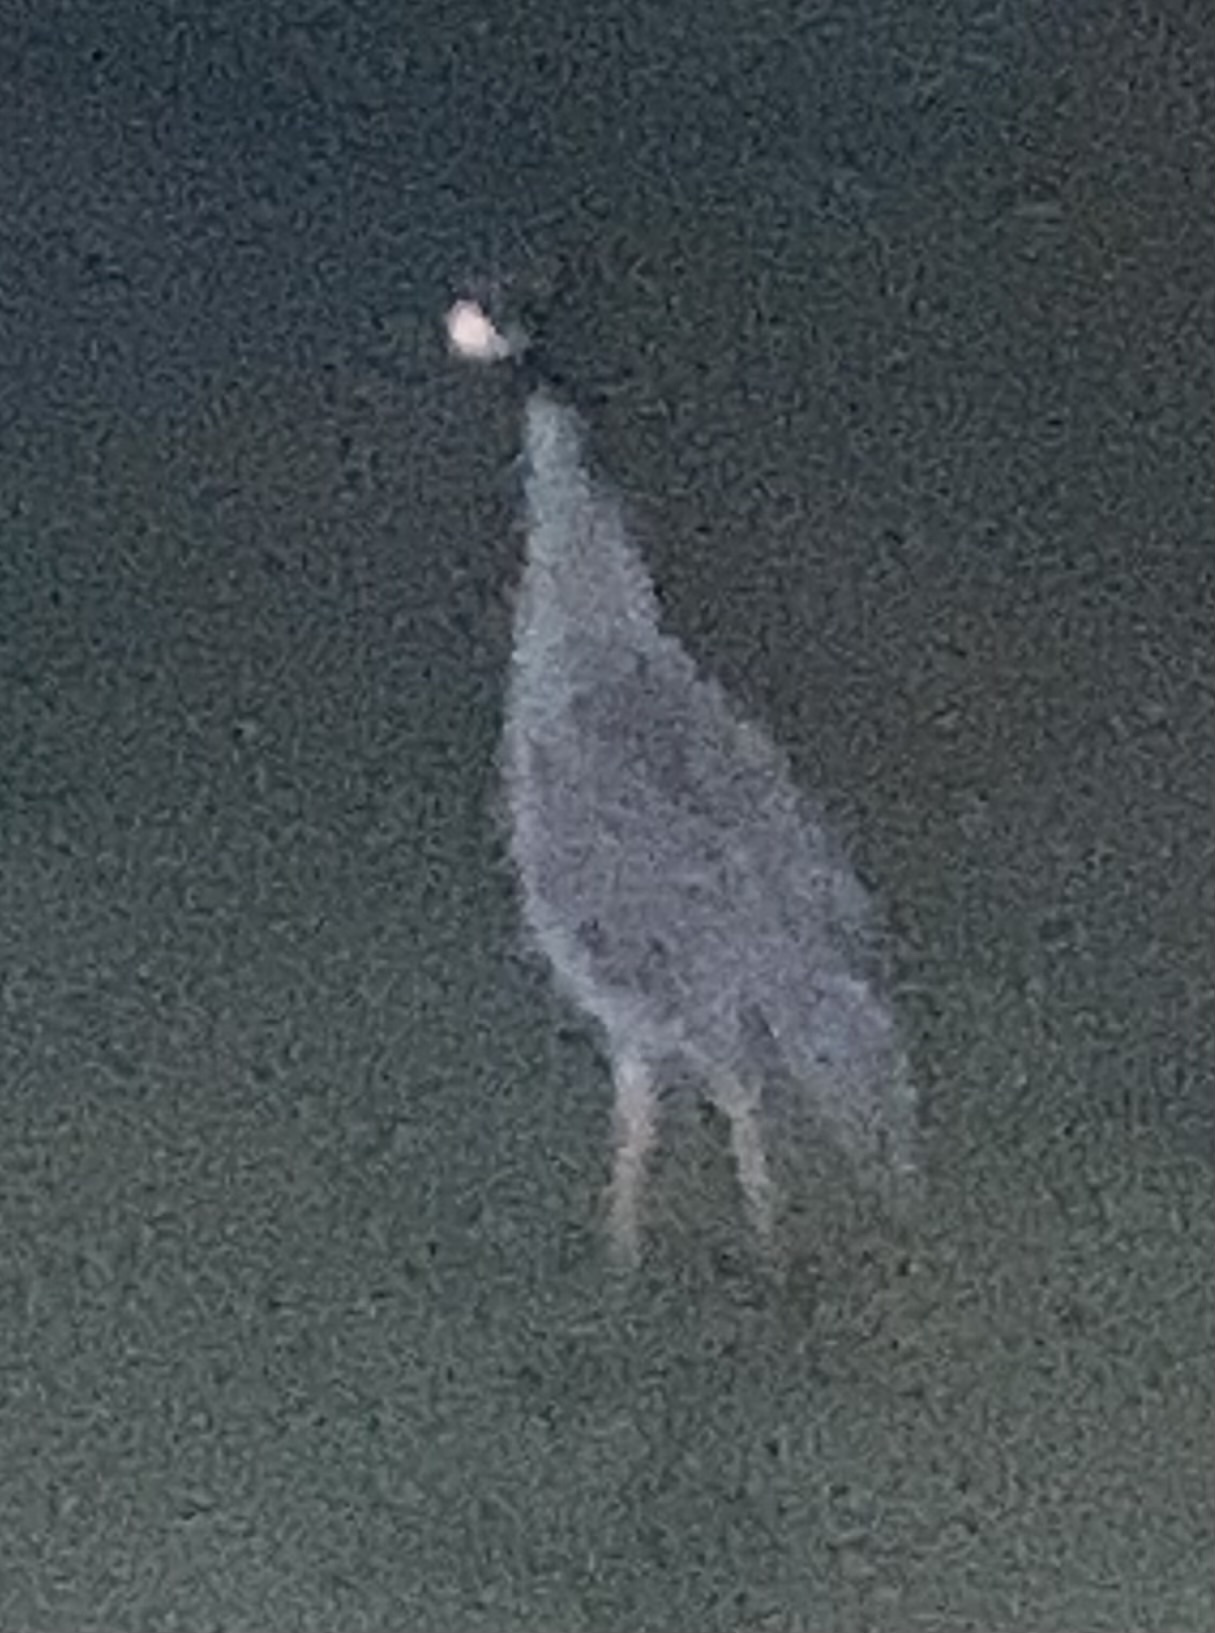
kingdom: Animalia
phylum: Chordata
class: Aves
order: Pelecaniformes
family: Ardeidae
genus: Nyctanassa
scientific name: Nyctanassa violacea
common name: Yellow-crowned night heron
